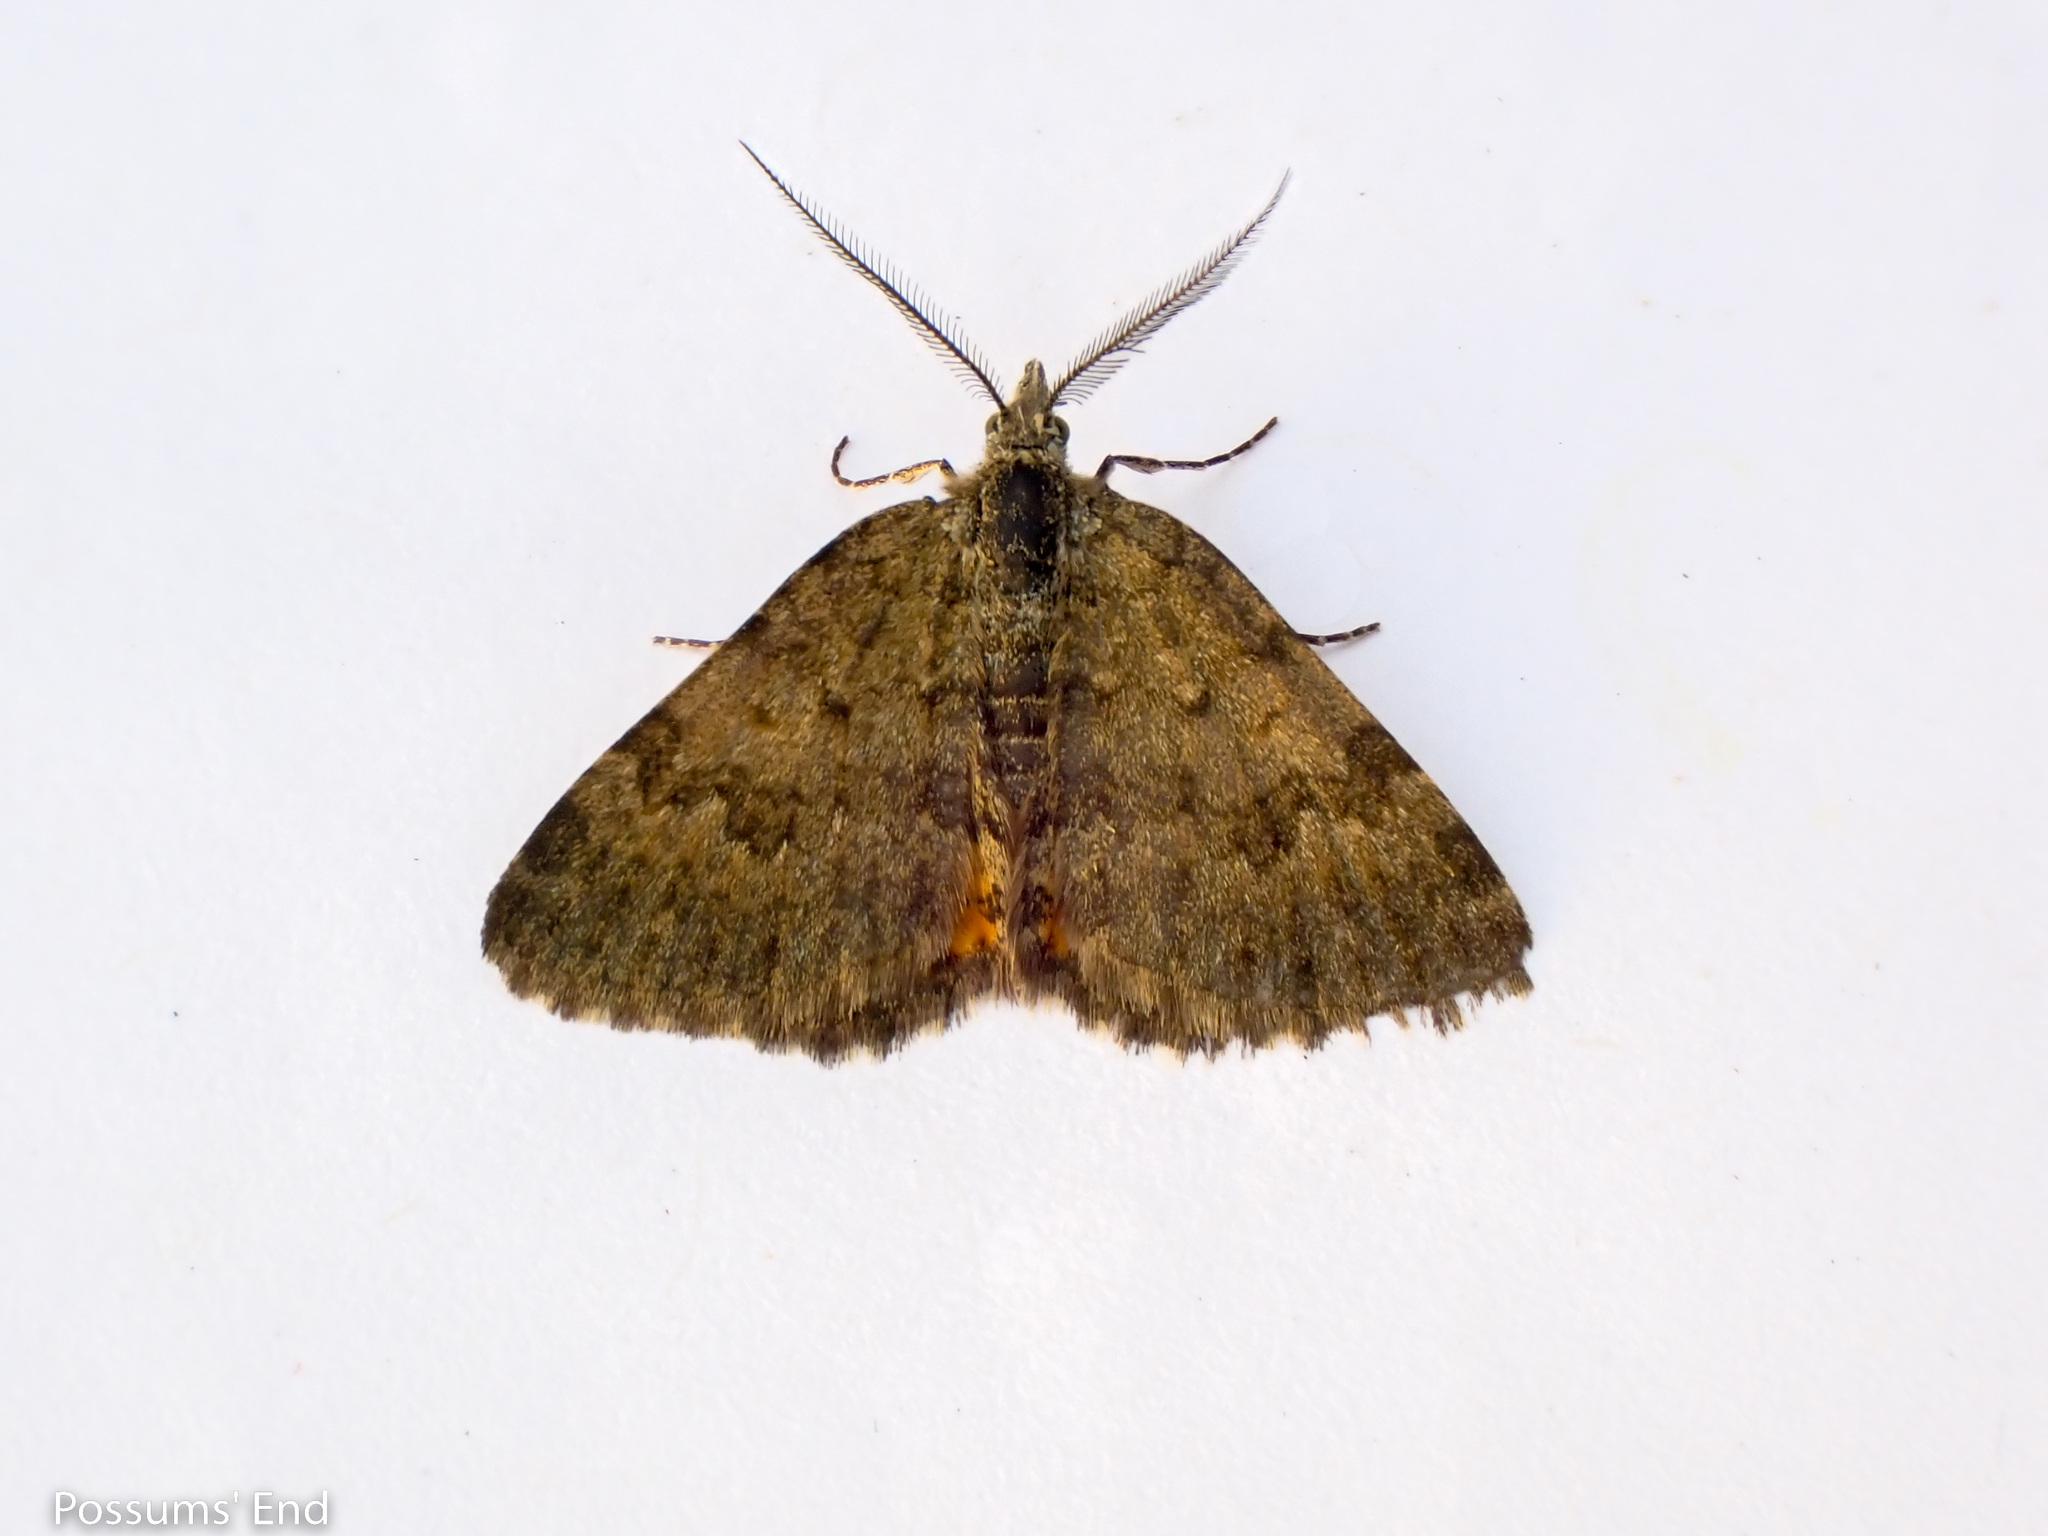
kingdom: Animalia
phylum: Arthropoda
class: Insecta
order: Lepidoptera
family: Geometridae
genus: Paranotoreas
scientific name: Paranotoreas brephosata
